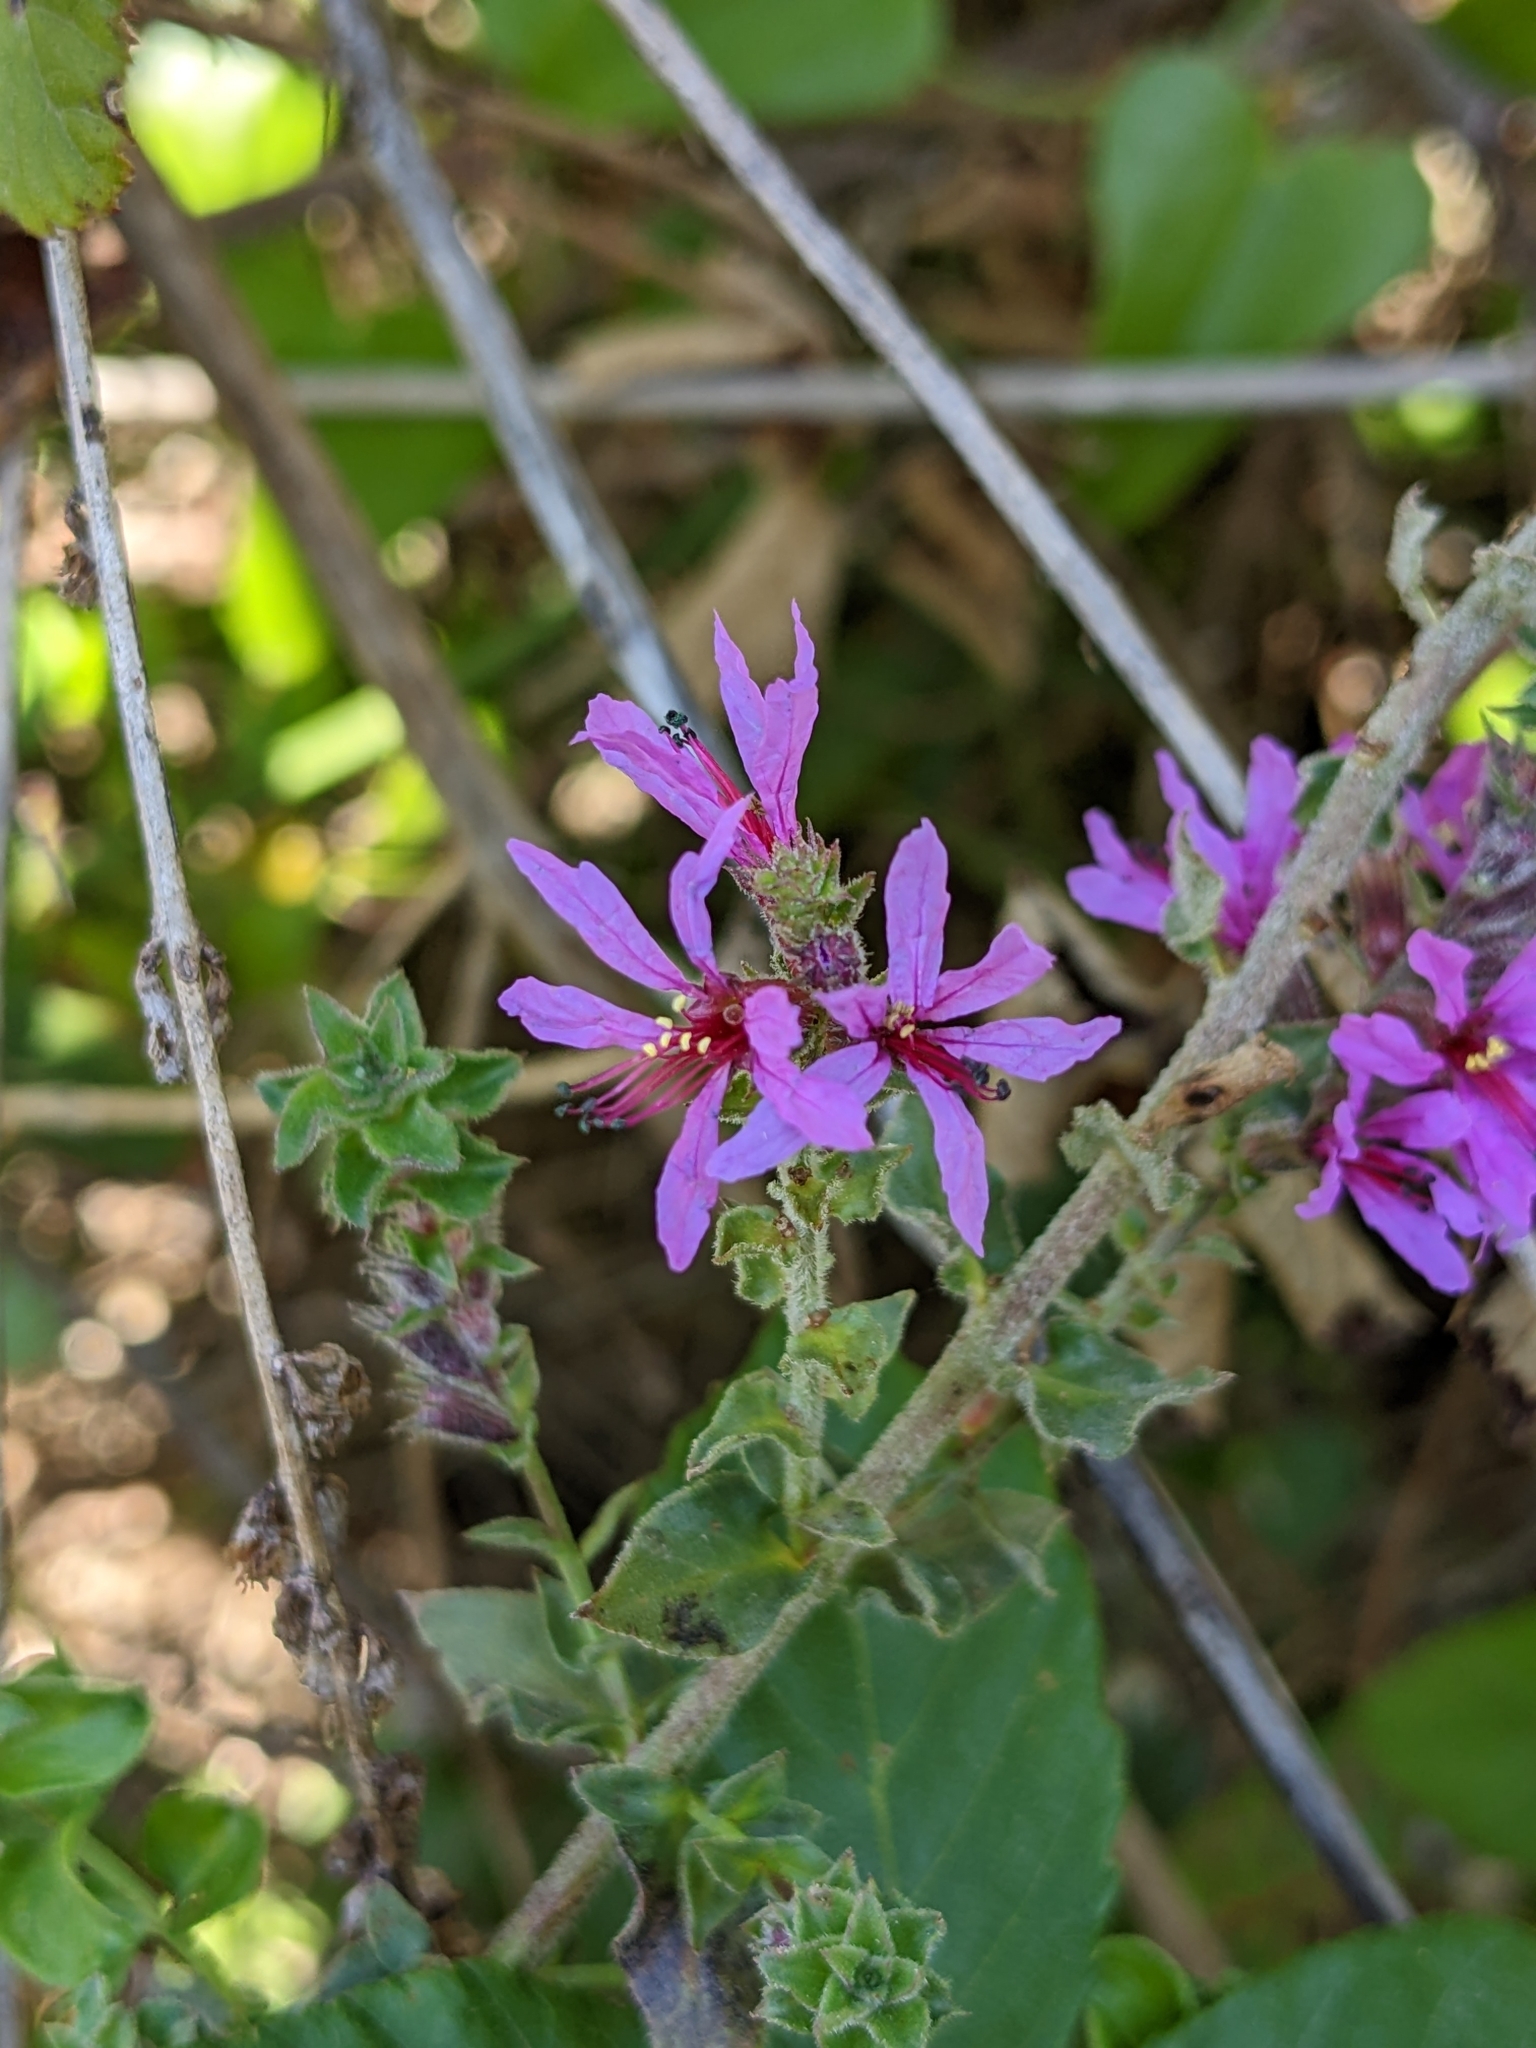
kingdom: Plantae
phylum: Tracheophyta
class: Magnoliopsida
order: Myrtales
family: Lythraceae
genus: Lythrum
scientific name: Lythrum salicaria
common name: Purple loosestrife
